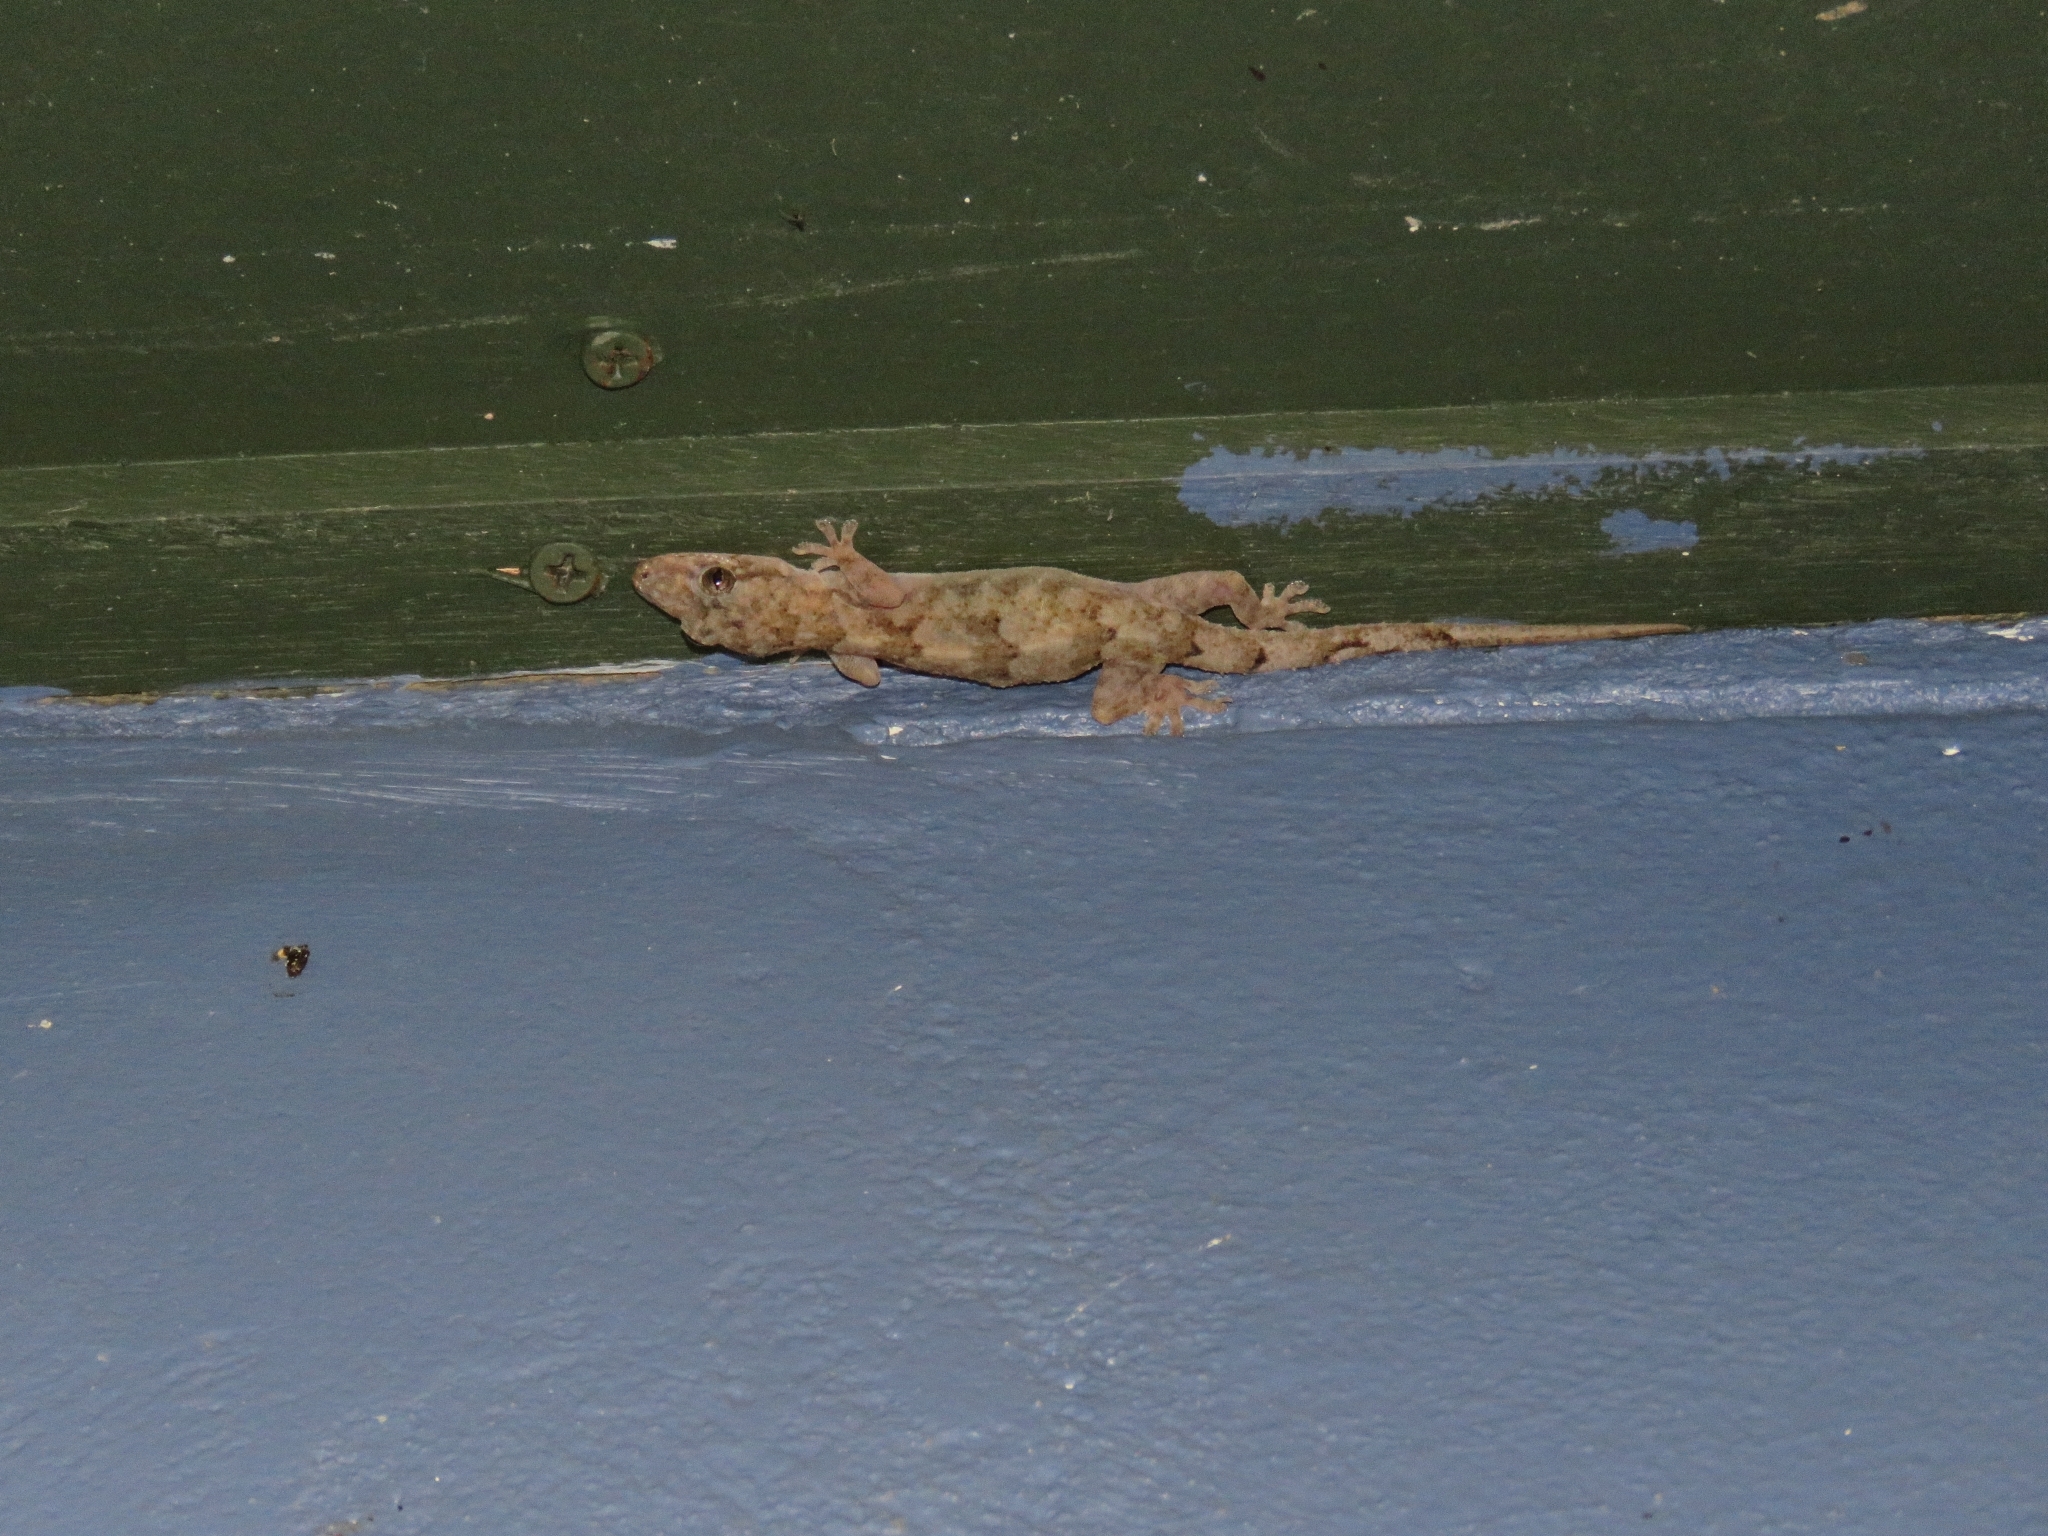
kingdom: Animalia
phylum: Chordata
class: Squamata
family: Gekkonidae
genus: Hemidactylus
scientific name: Hemidactylus mabouia
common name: House gecko
